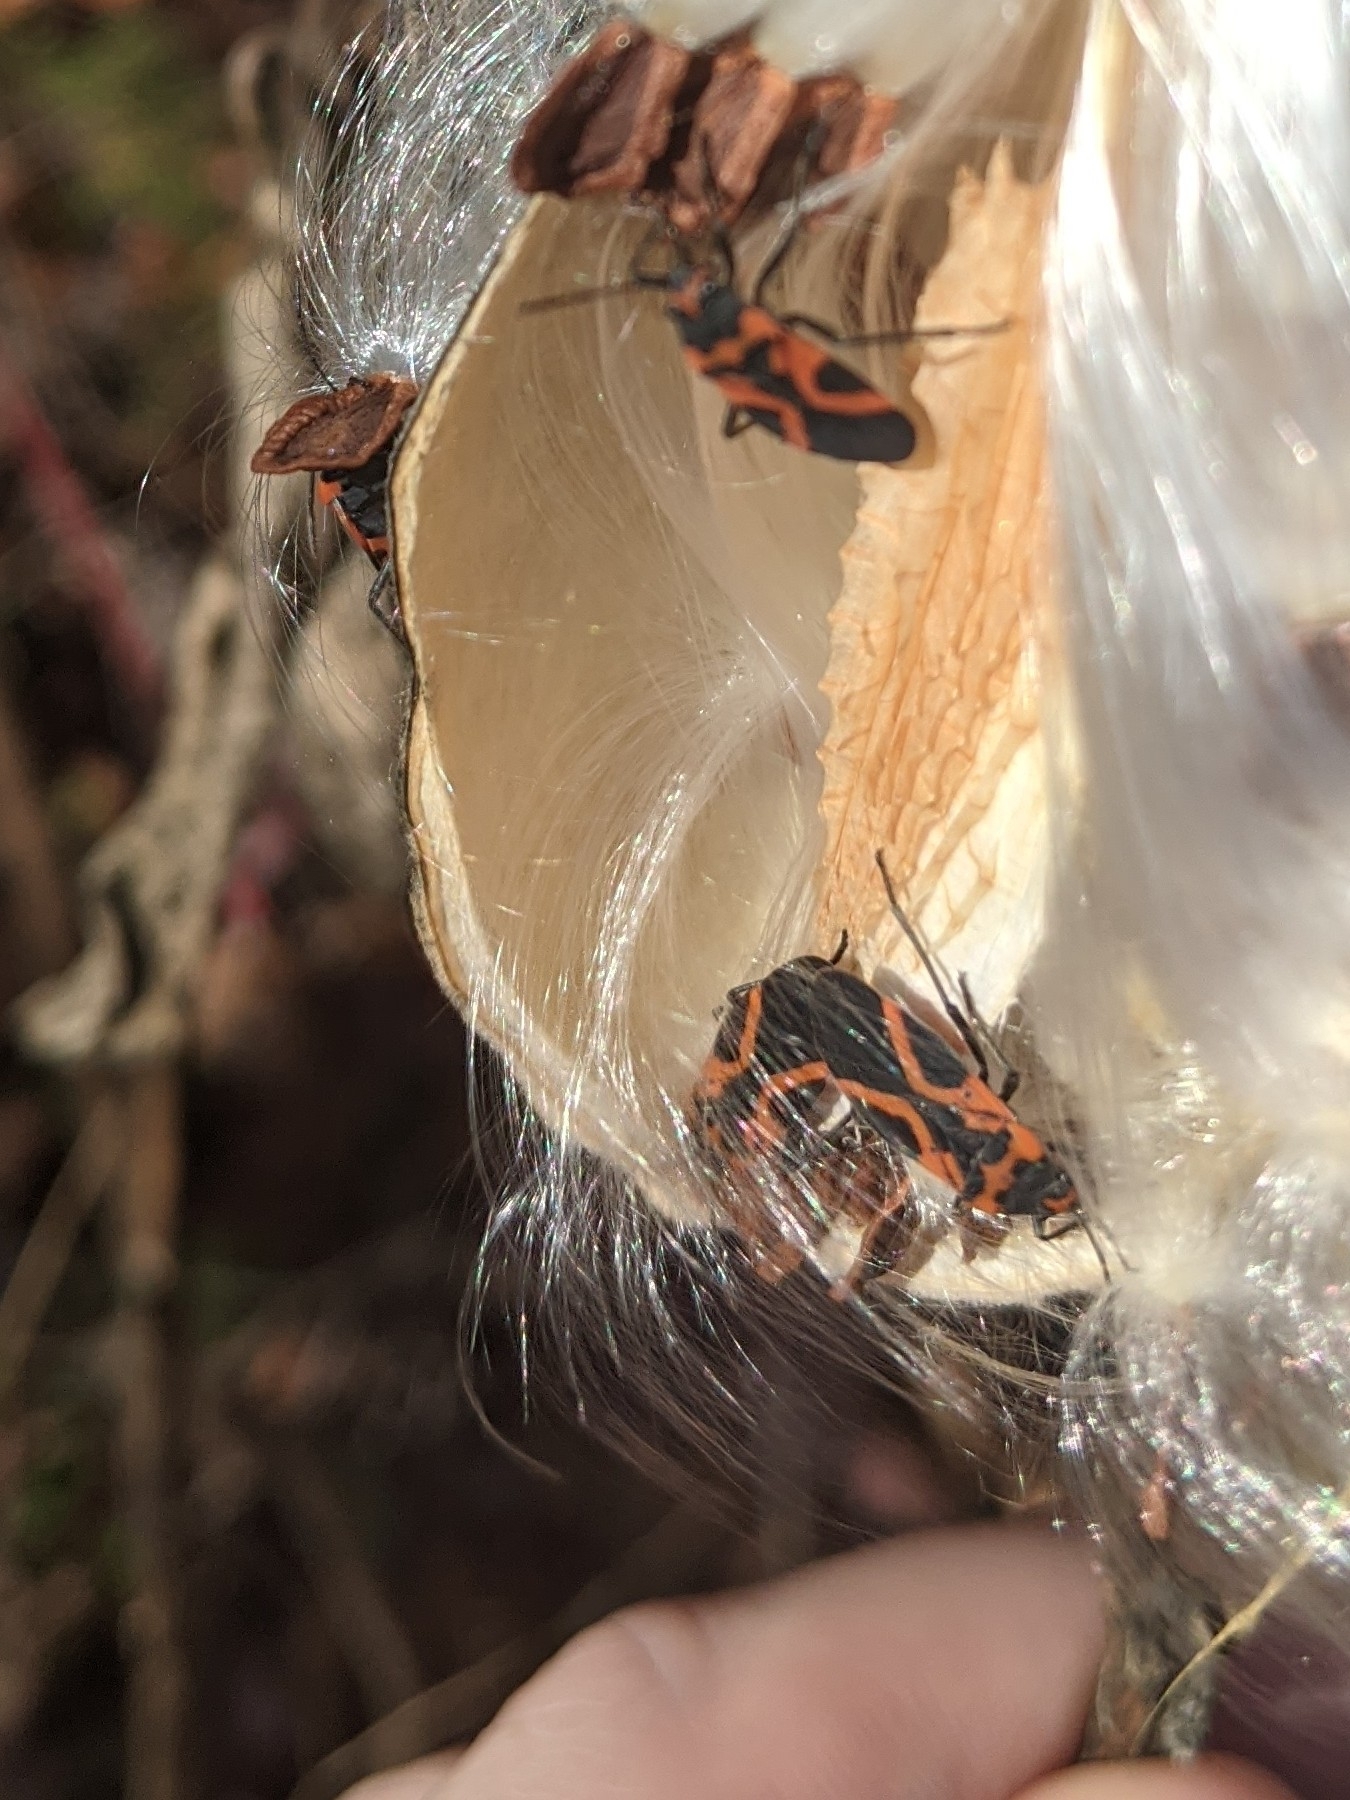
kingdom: Animalia
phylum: Arthropoda
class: Insecta
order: Hemiptera
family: Lygaeidae
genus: Lygaeus
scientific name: Lygaeus turcicus
